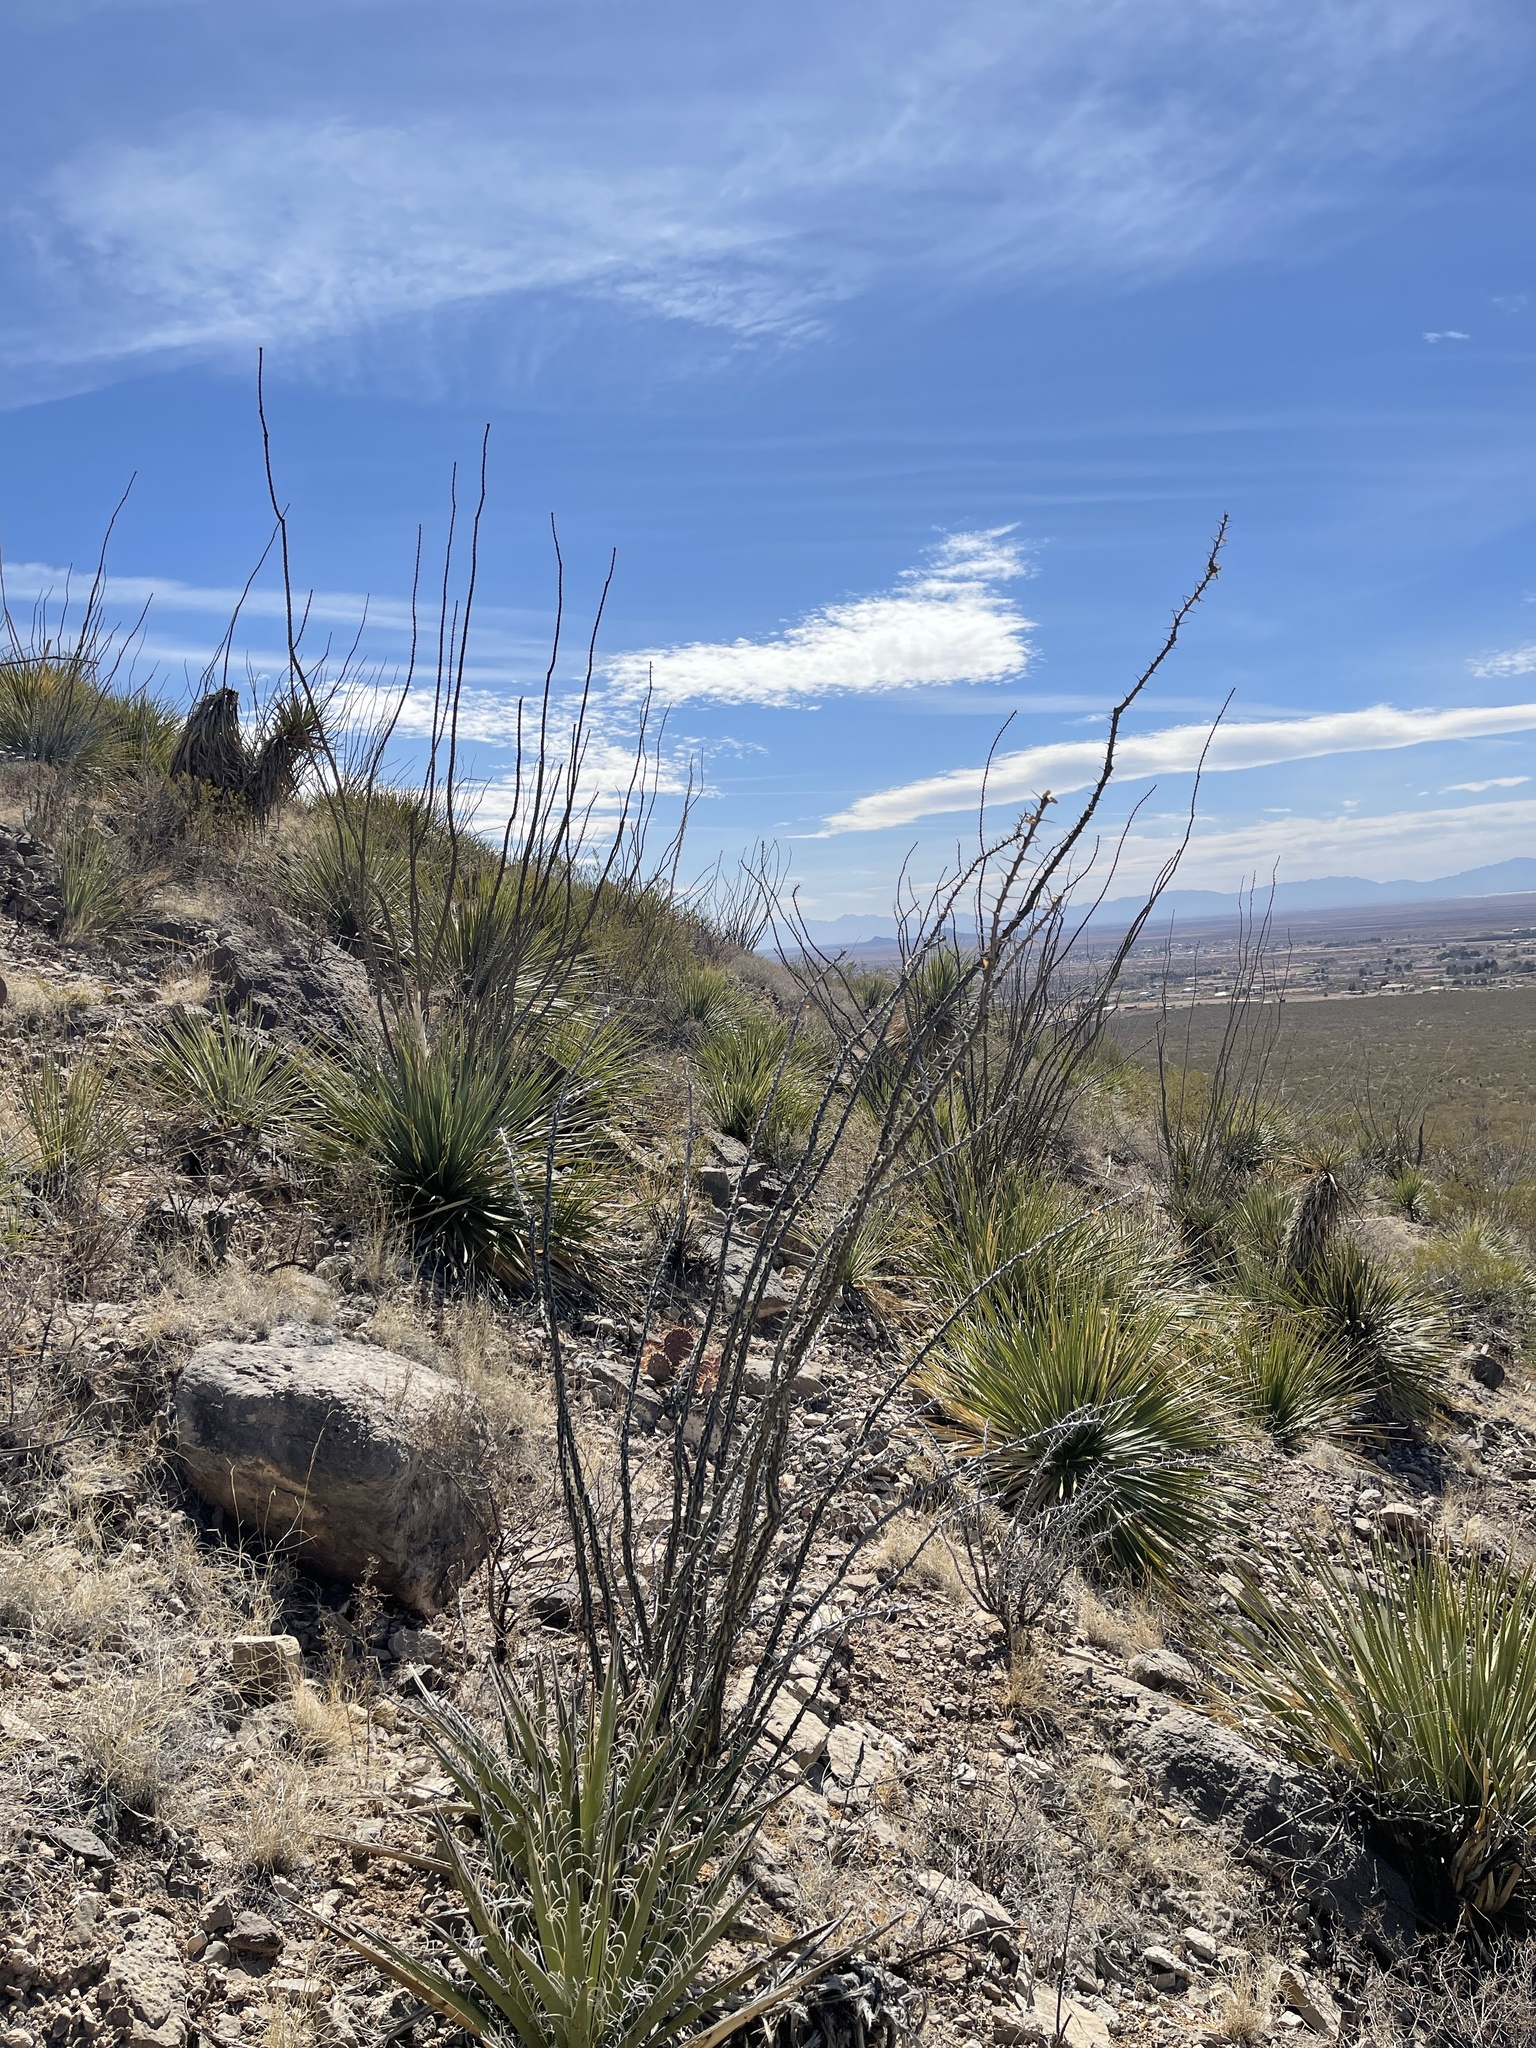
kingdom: Plantae
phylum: Tracheophyta
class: Magnoliopsida
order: Ericales
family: Fouquieriaceae
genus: Fouquieria
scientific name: Fouquieria splendens
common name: Vine-cactus
